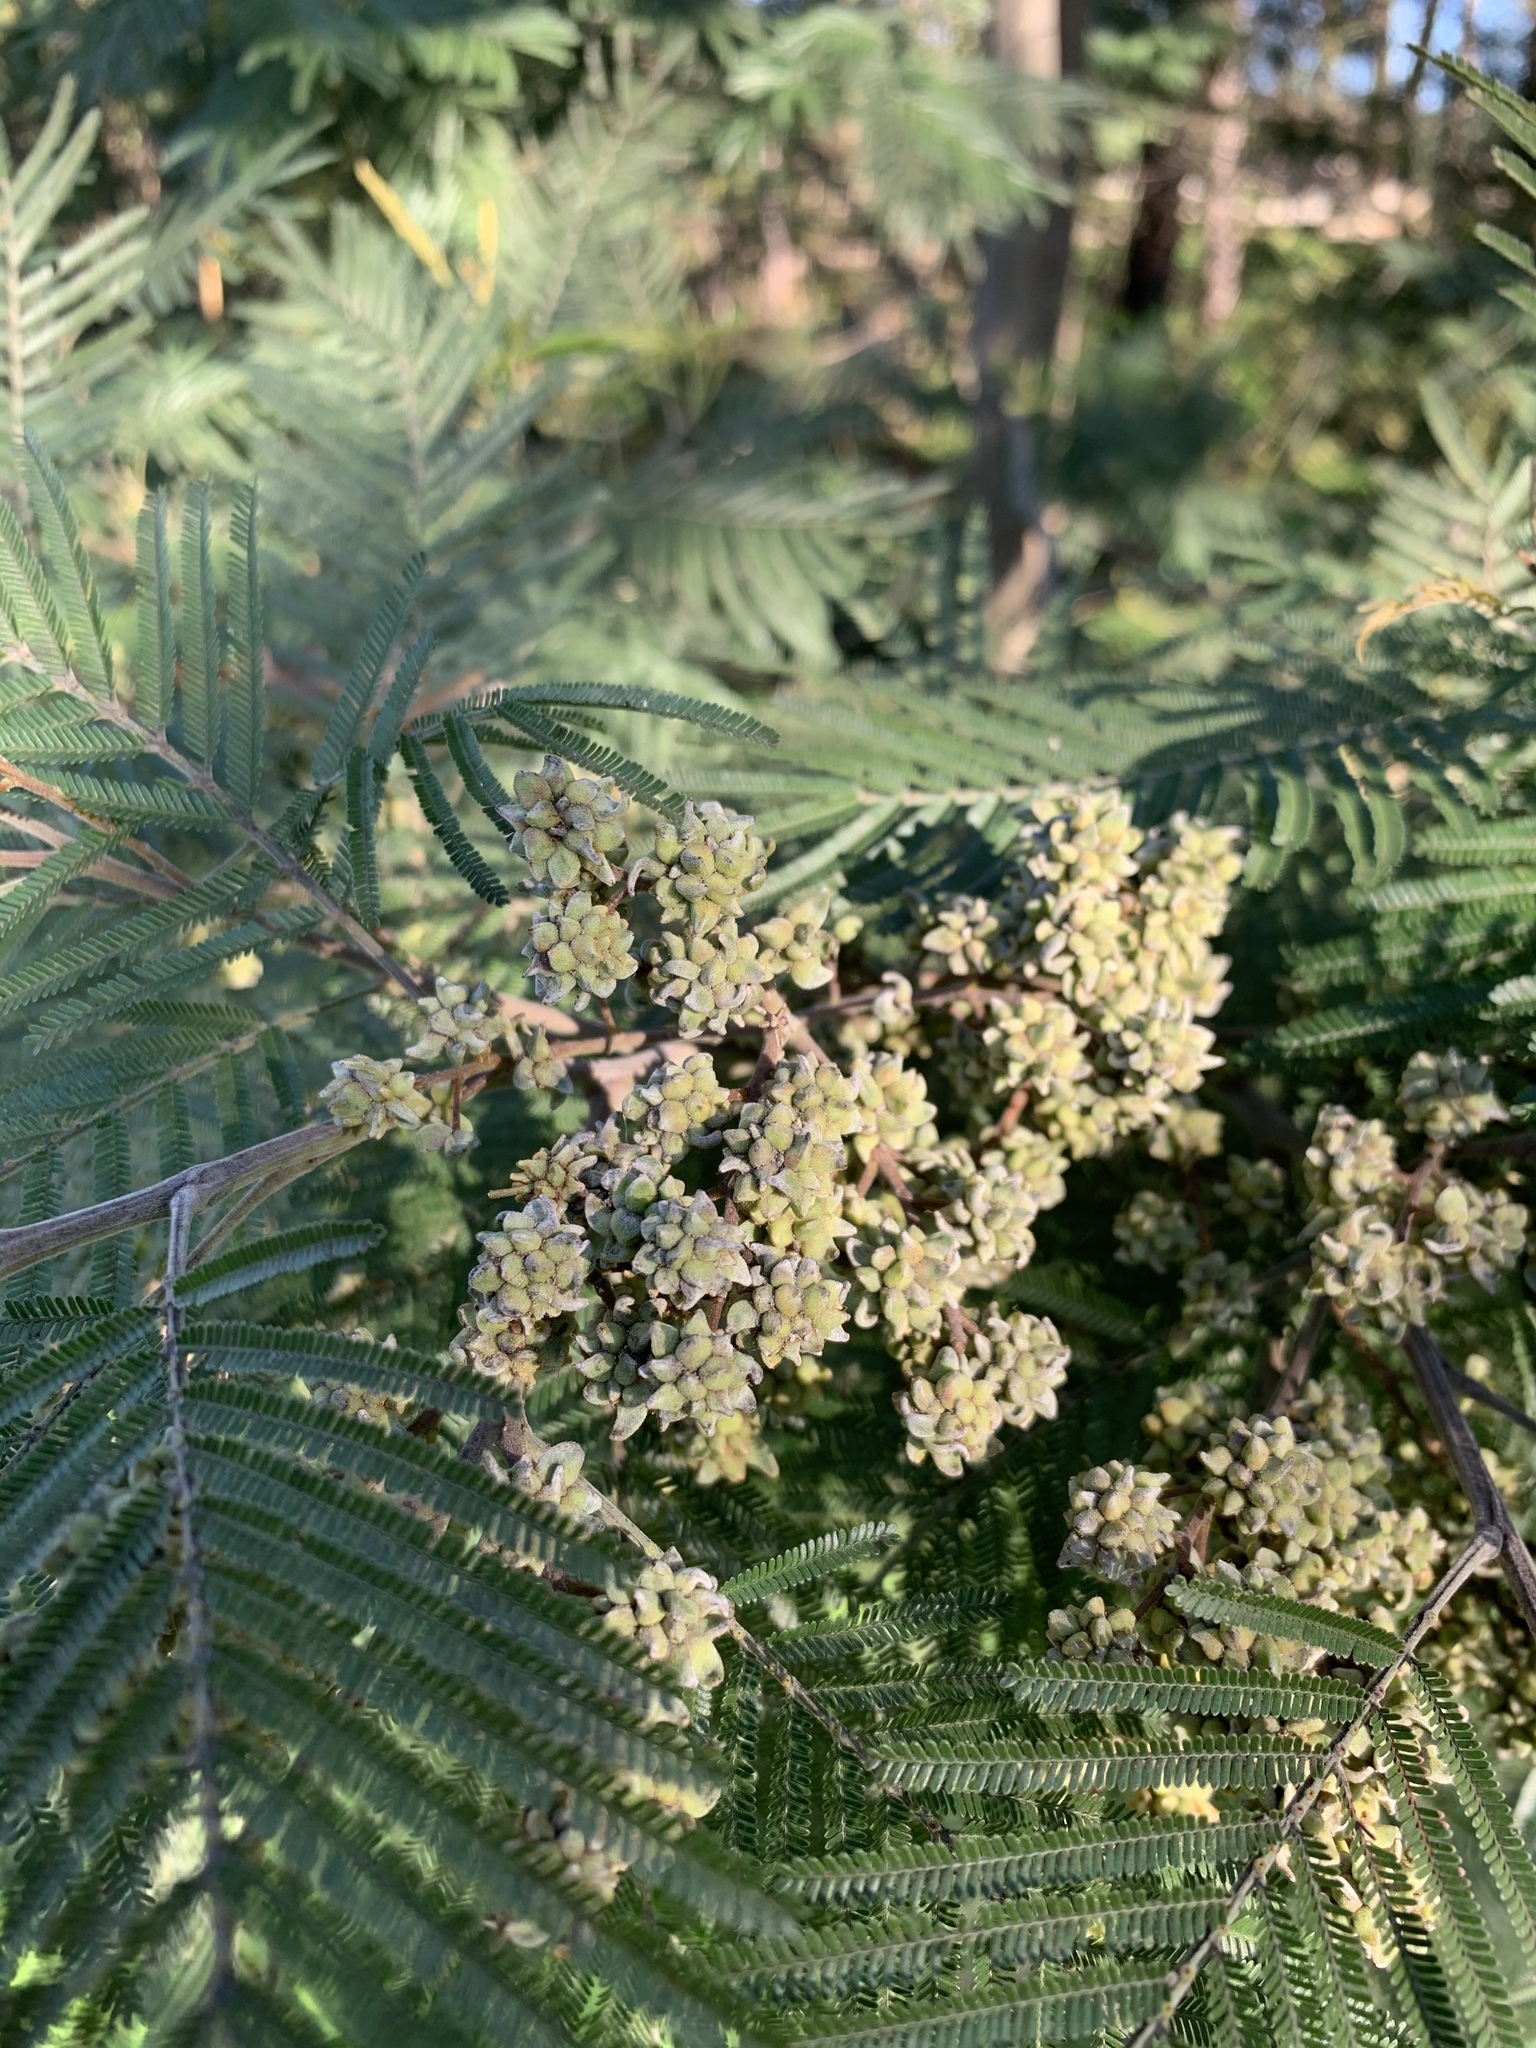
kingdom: Animalia
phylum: Arthropoda
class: Insecta
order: Diptera
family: Cecidomyiidae
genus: Dasineura
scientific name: Dasineura rubiformis
